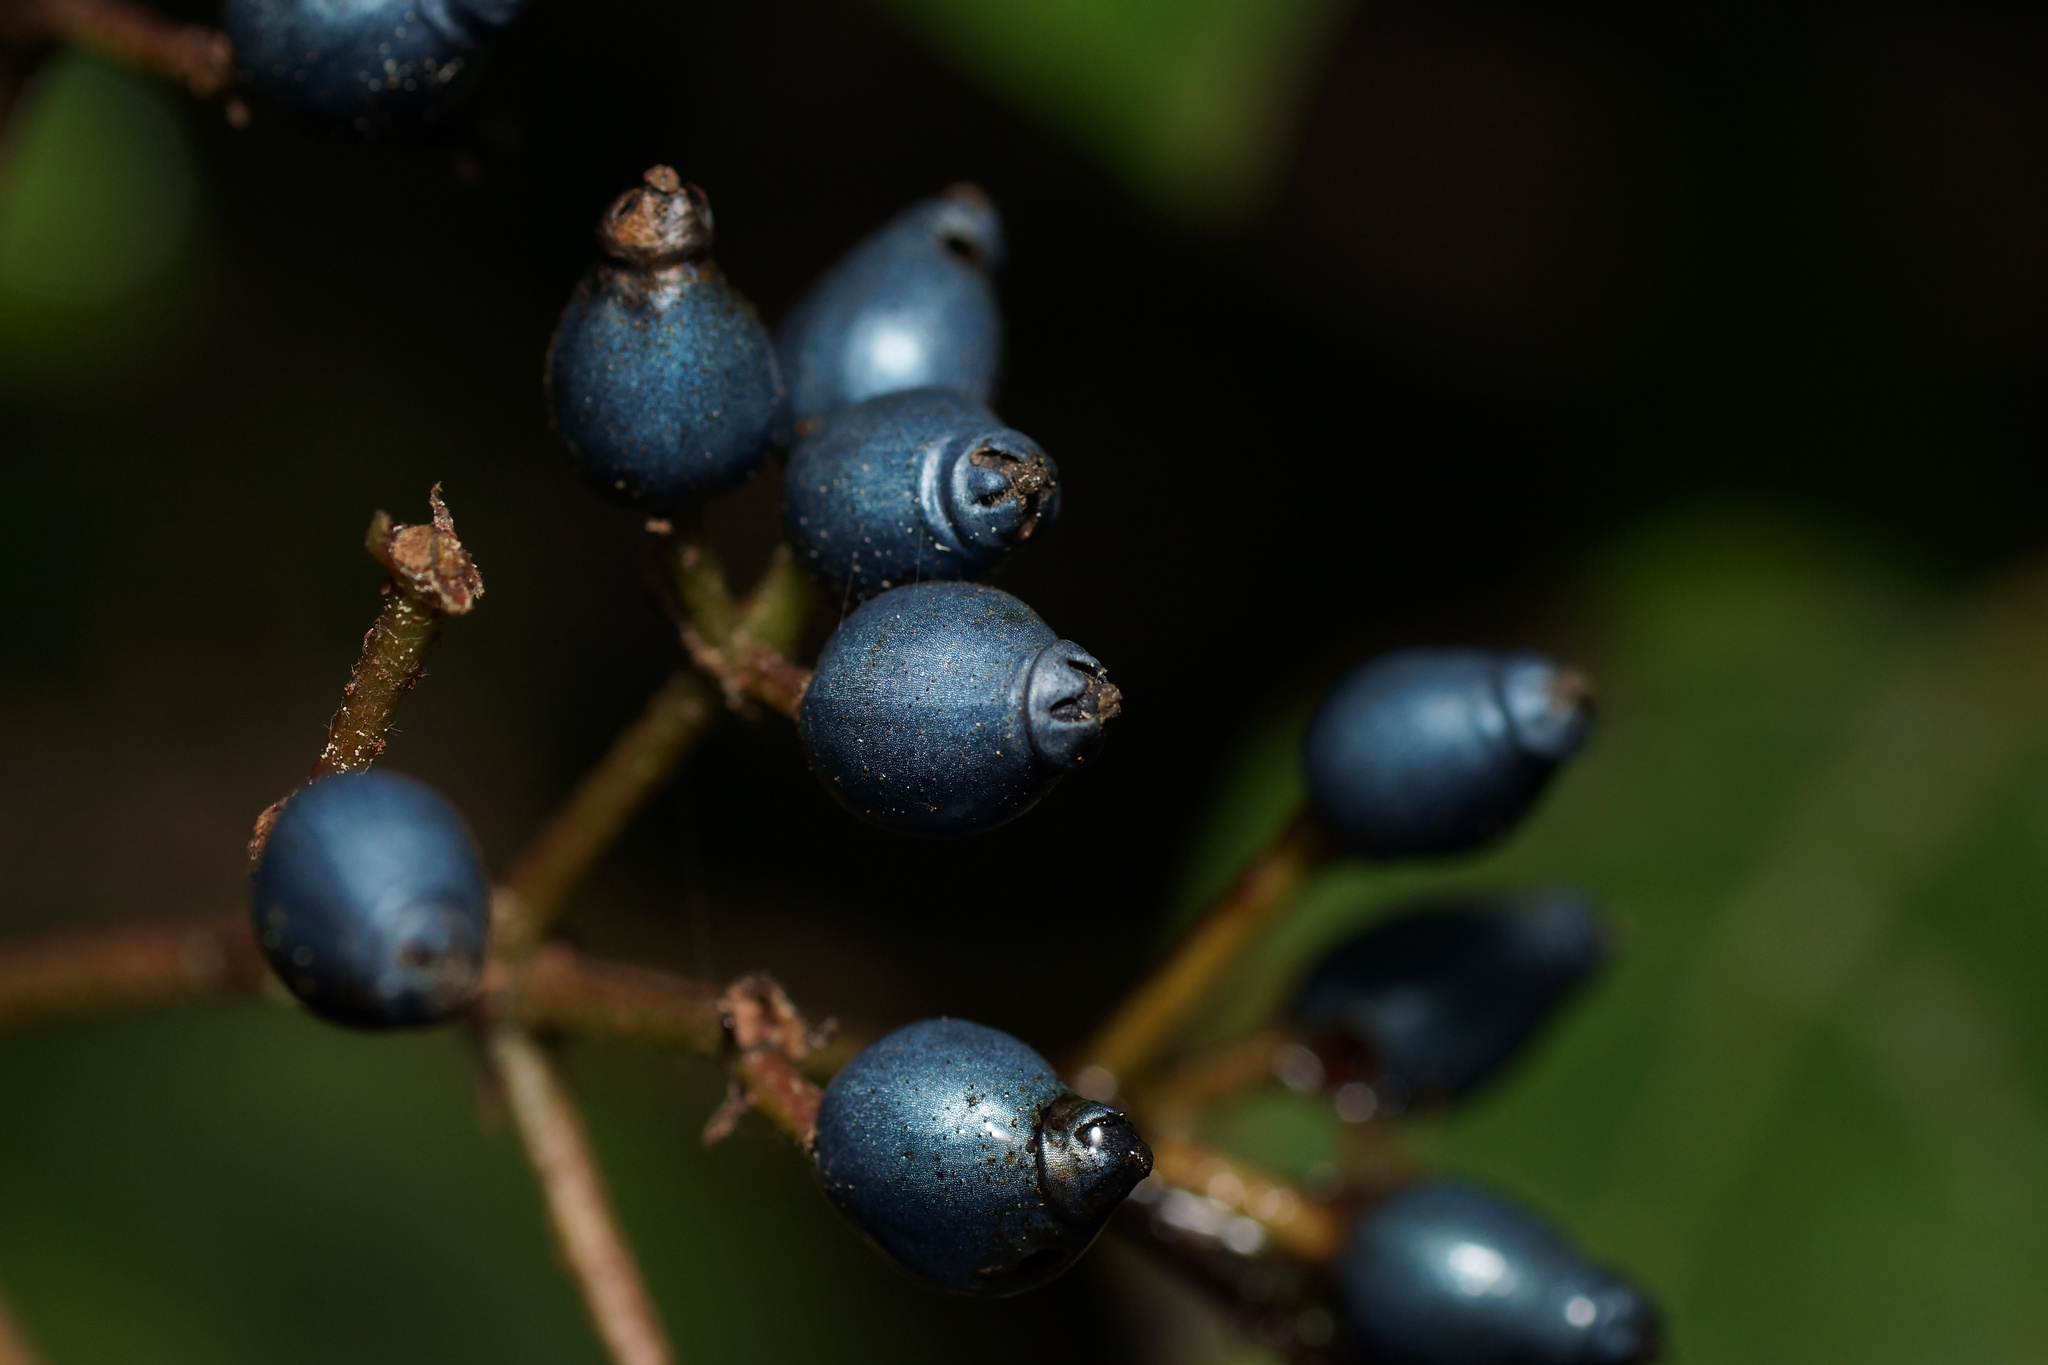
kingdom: Plantae
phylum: Tracheophyta
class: Magnoliopsida
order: Dipsacales
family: Viburnaceae
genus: Viburnum
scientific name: Viburnum tinus
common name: Laurustinus
